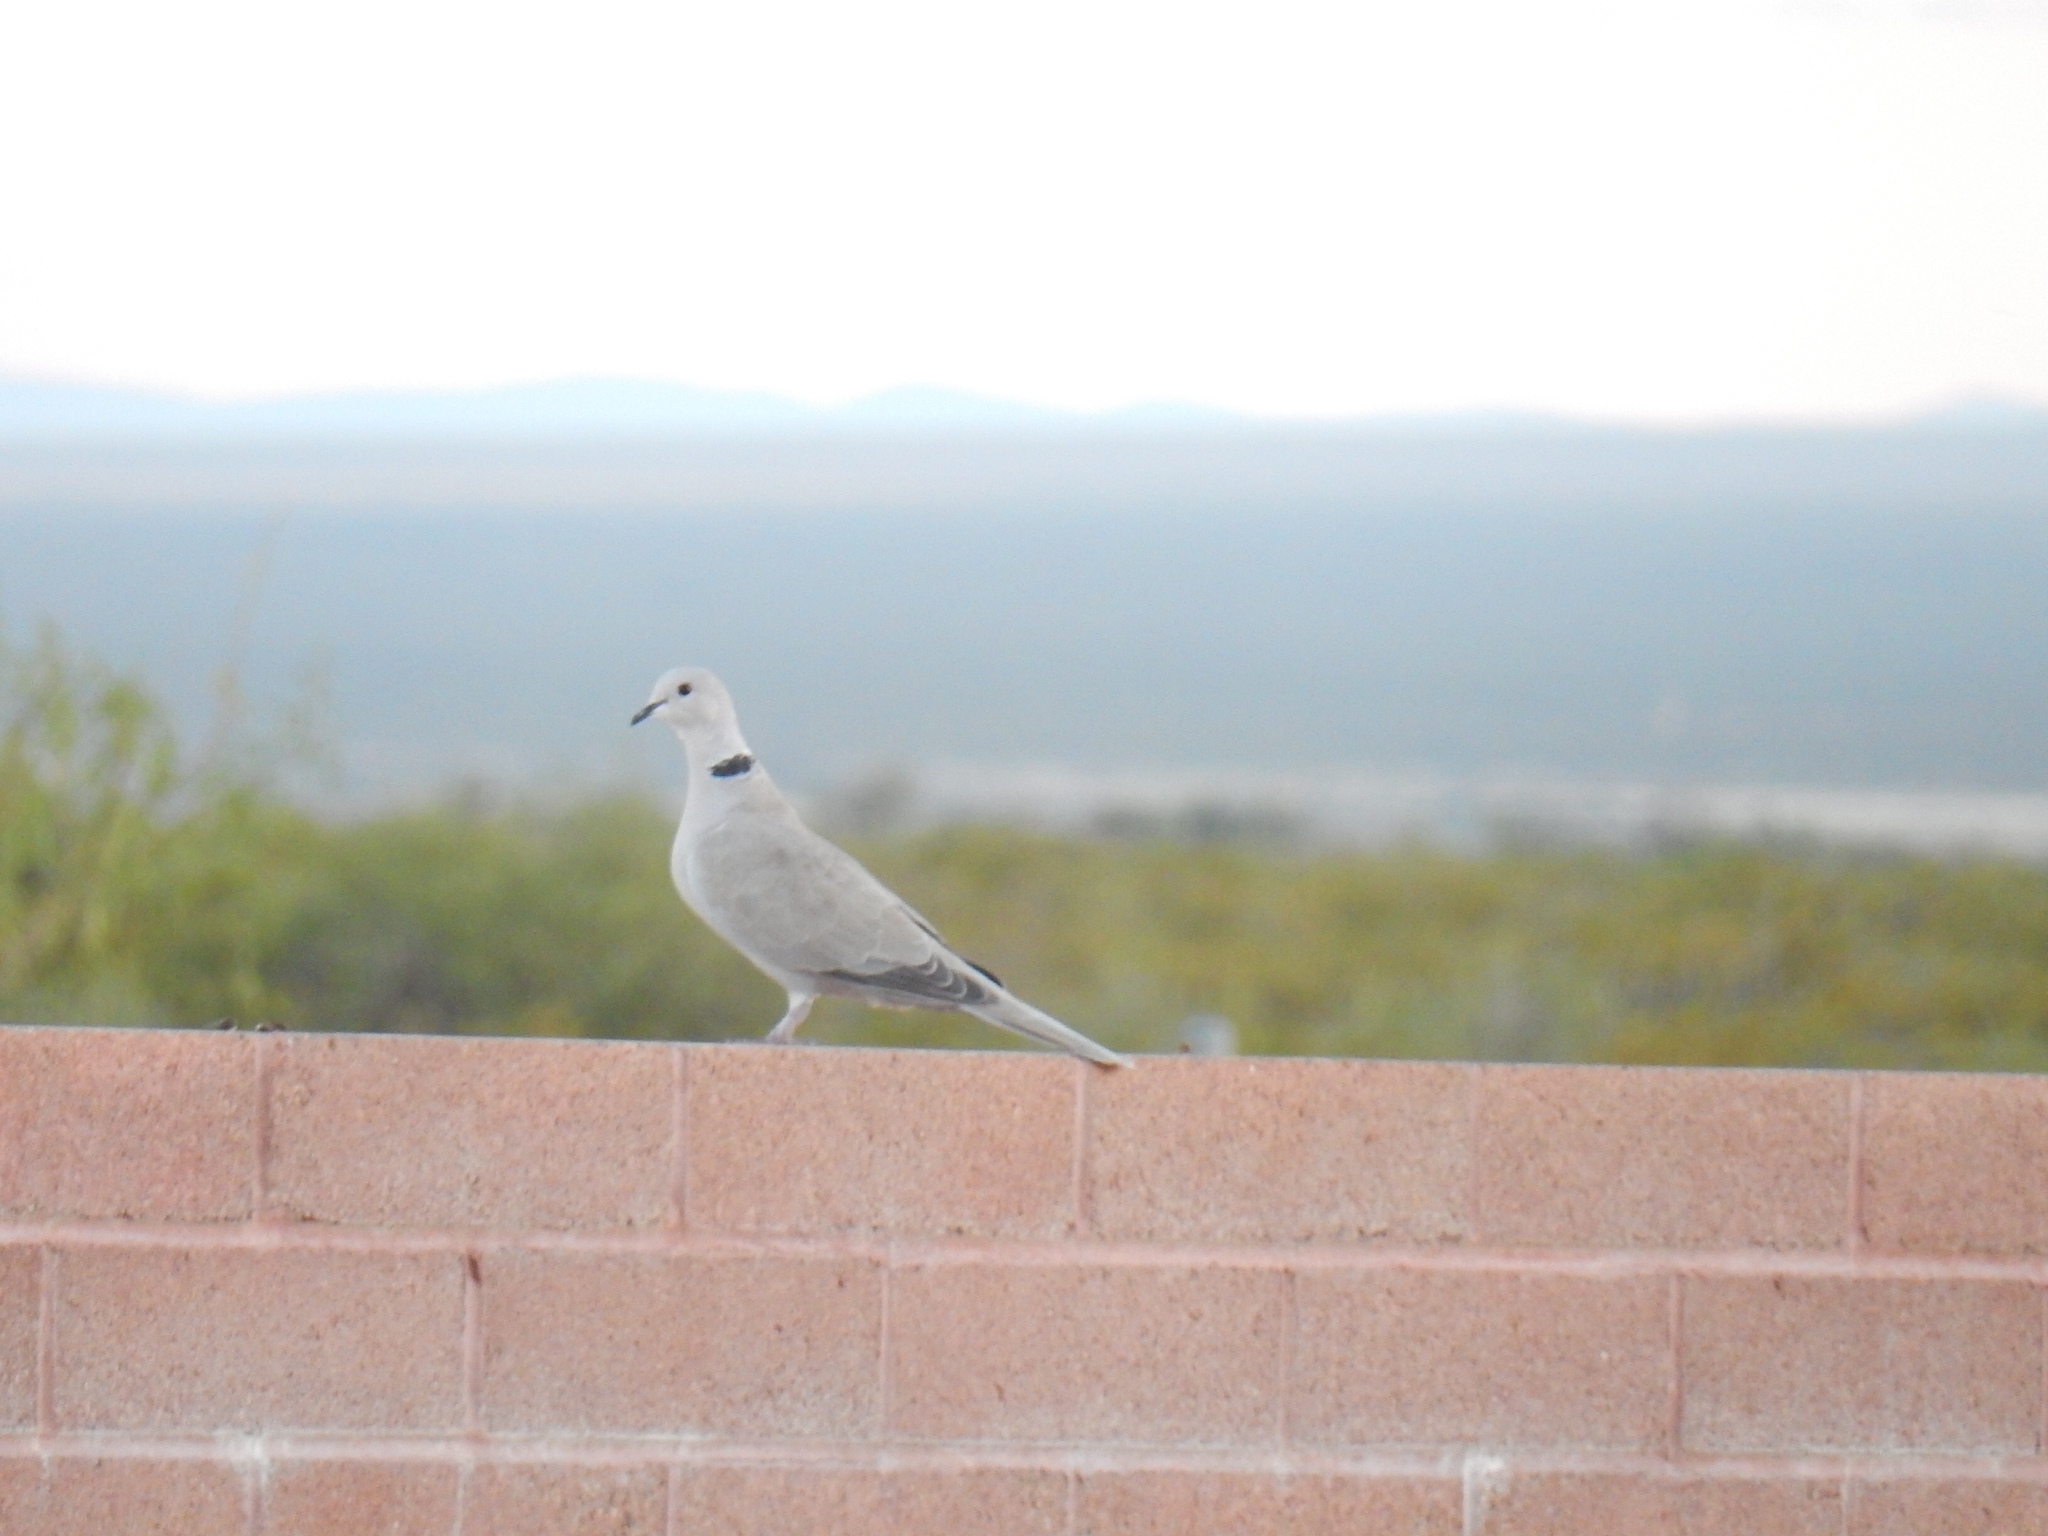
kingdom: Animalia
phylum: Chordata
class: Aves
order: Columbiformes
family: Columbidae
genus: Streptopelia
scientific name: Streptopelia decaocto
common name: Eurasian collared dove
